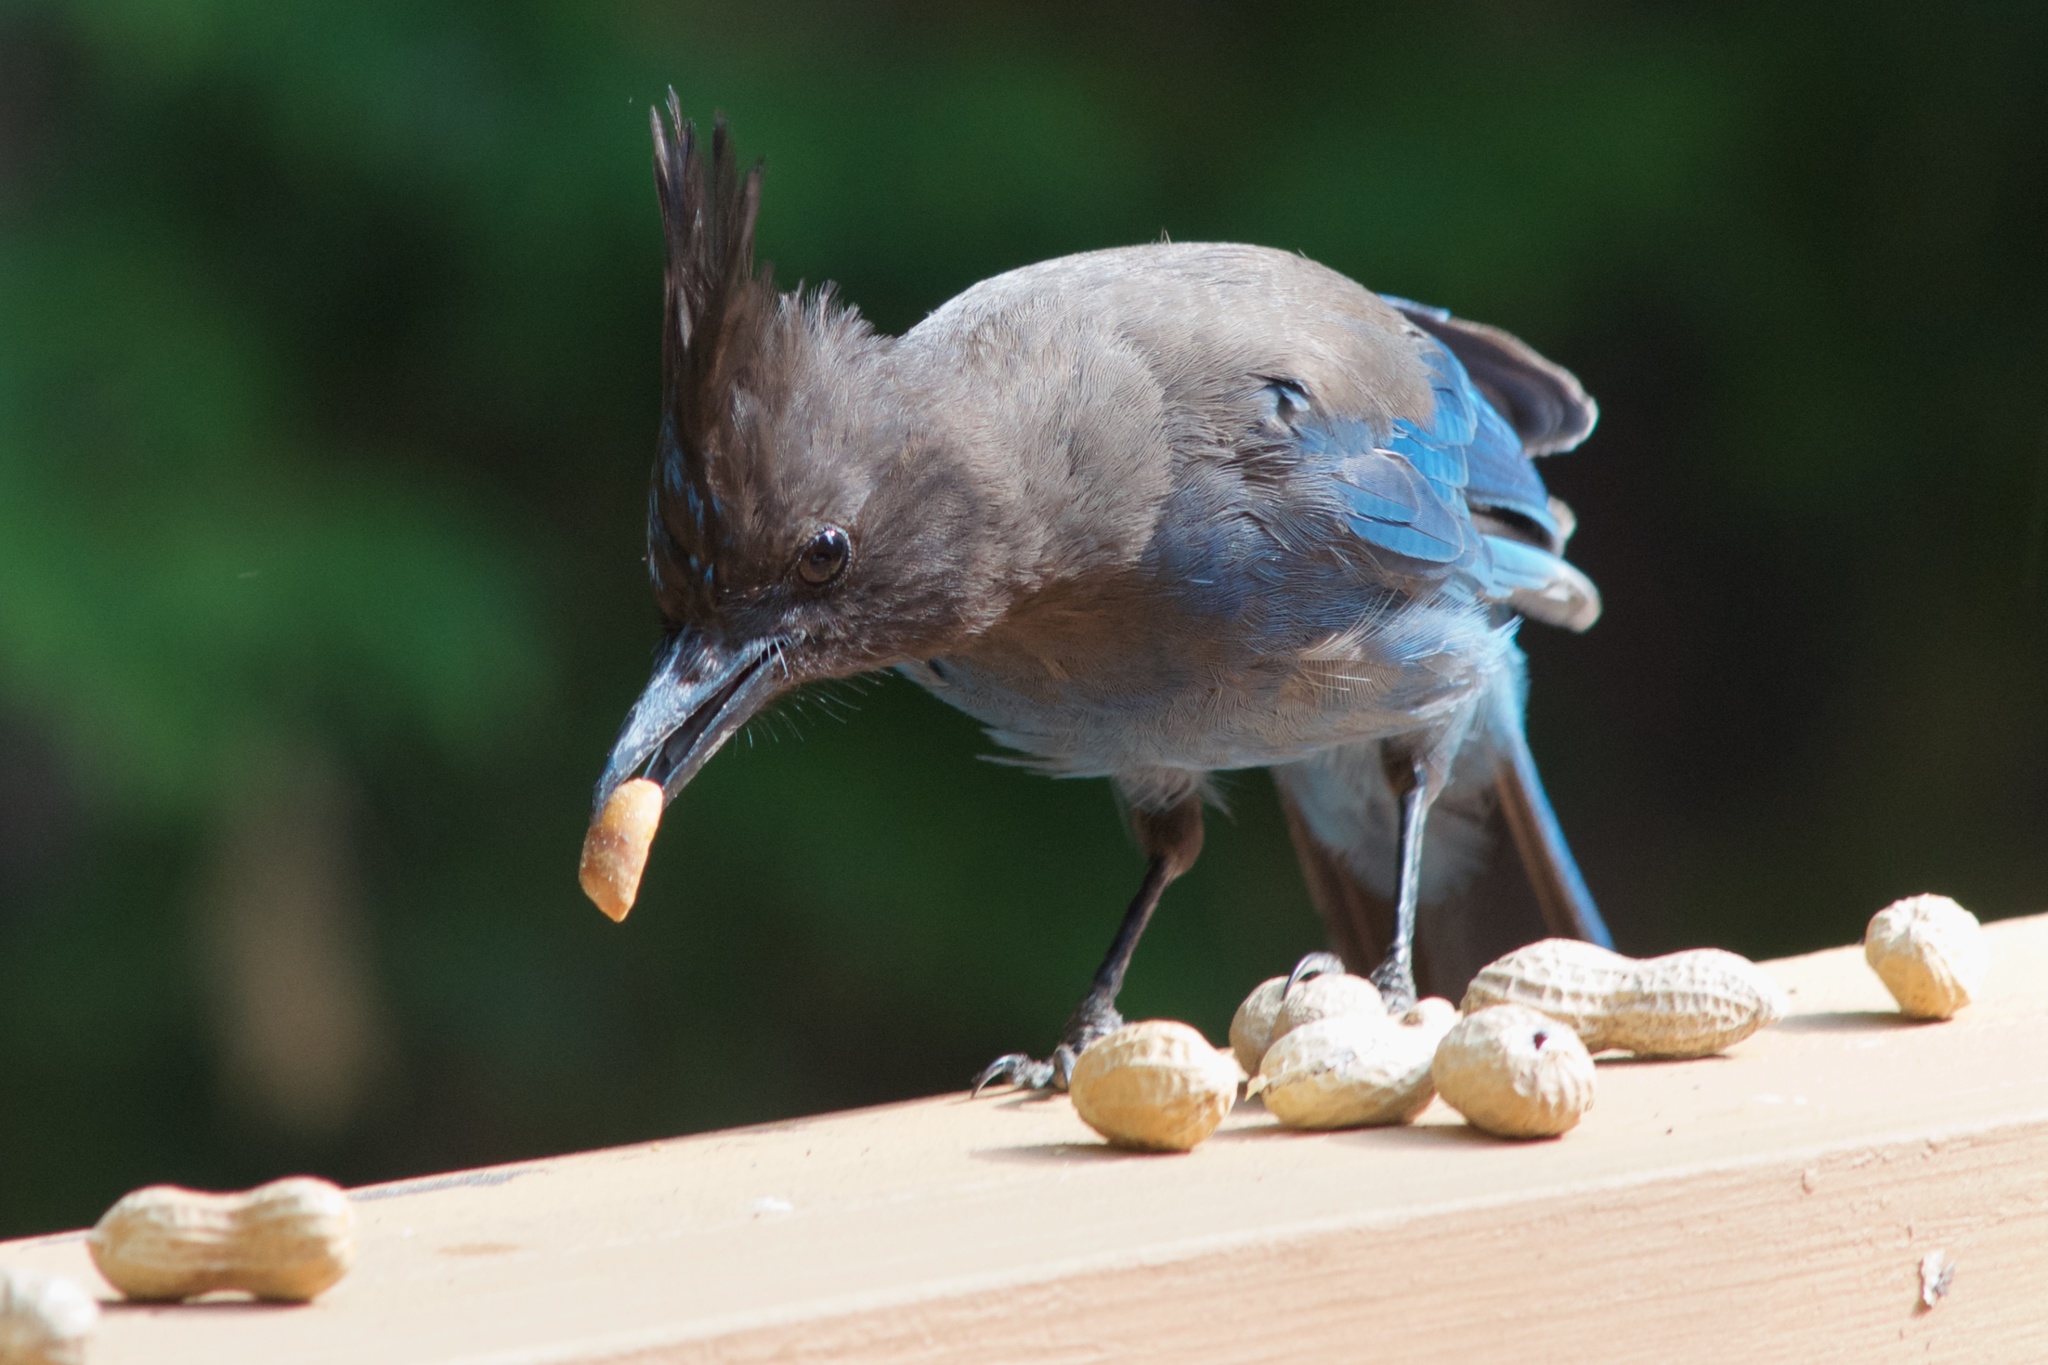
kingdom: Animalia
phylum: Chordata
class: Aves
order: Passeriformes
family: Corvidae
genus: Cyanocitta
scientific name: Cyanocitta stelleri
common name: Steller's jay
